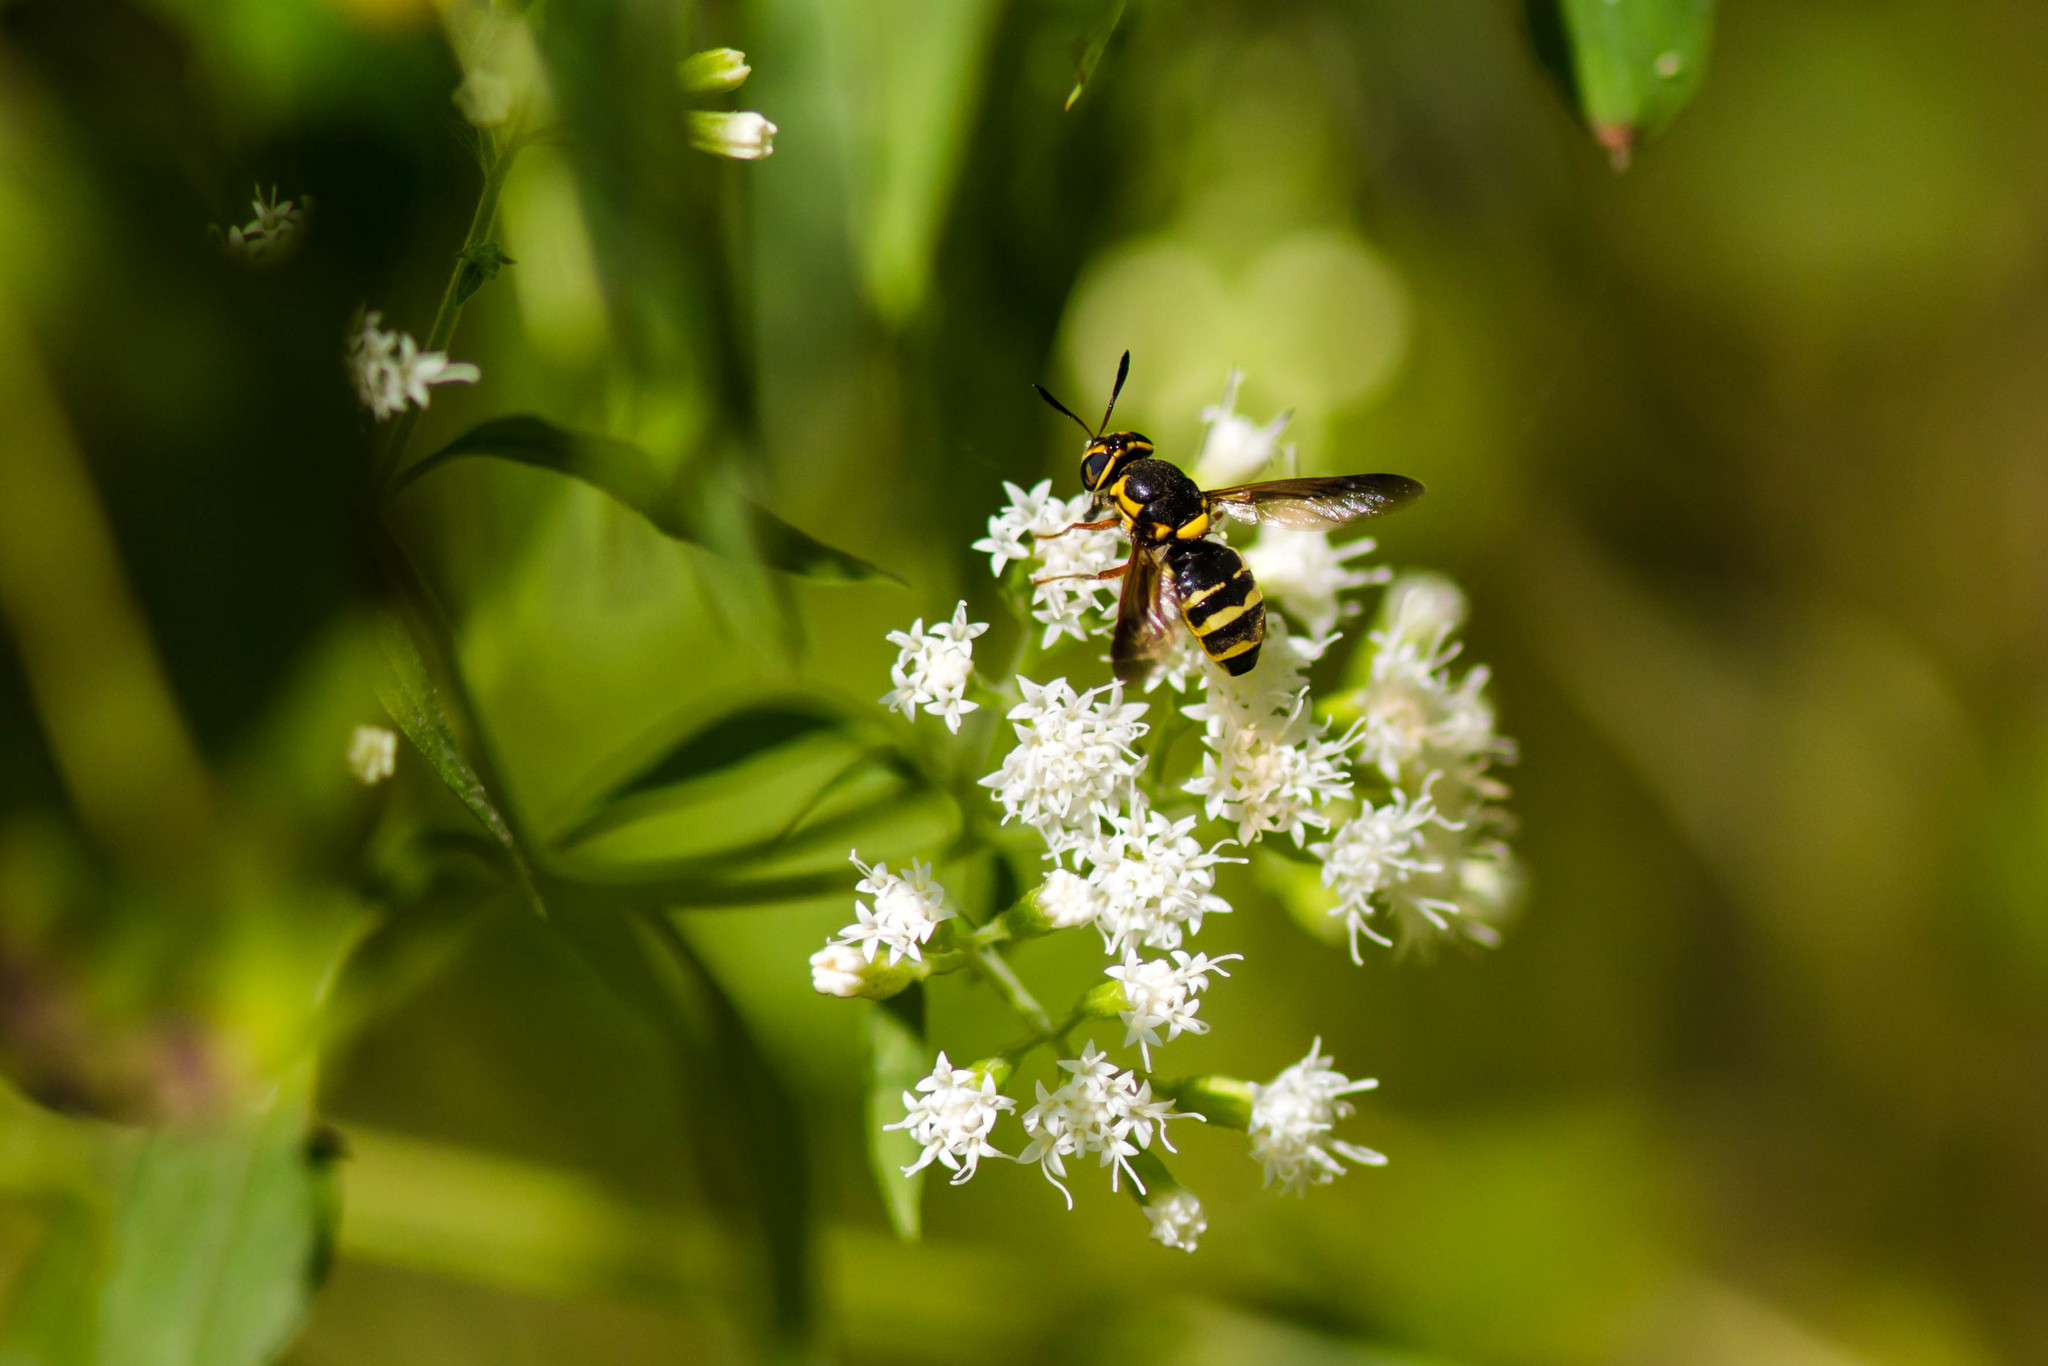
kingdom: Animalia
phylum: Arthropoda
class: Insecta
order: Diptera
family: Stratiomyidae
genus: Hoplitimyia
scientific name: Hoplitimyia constans
